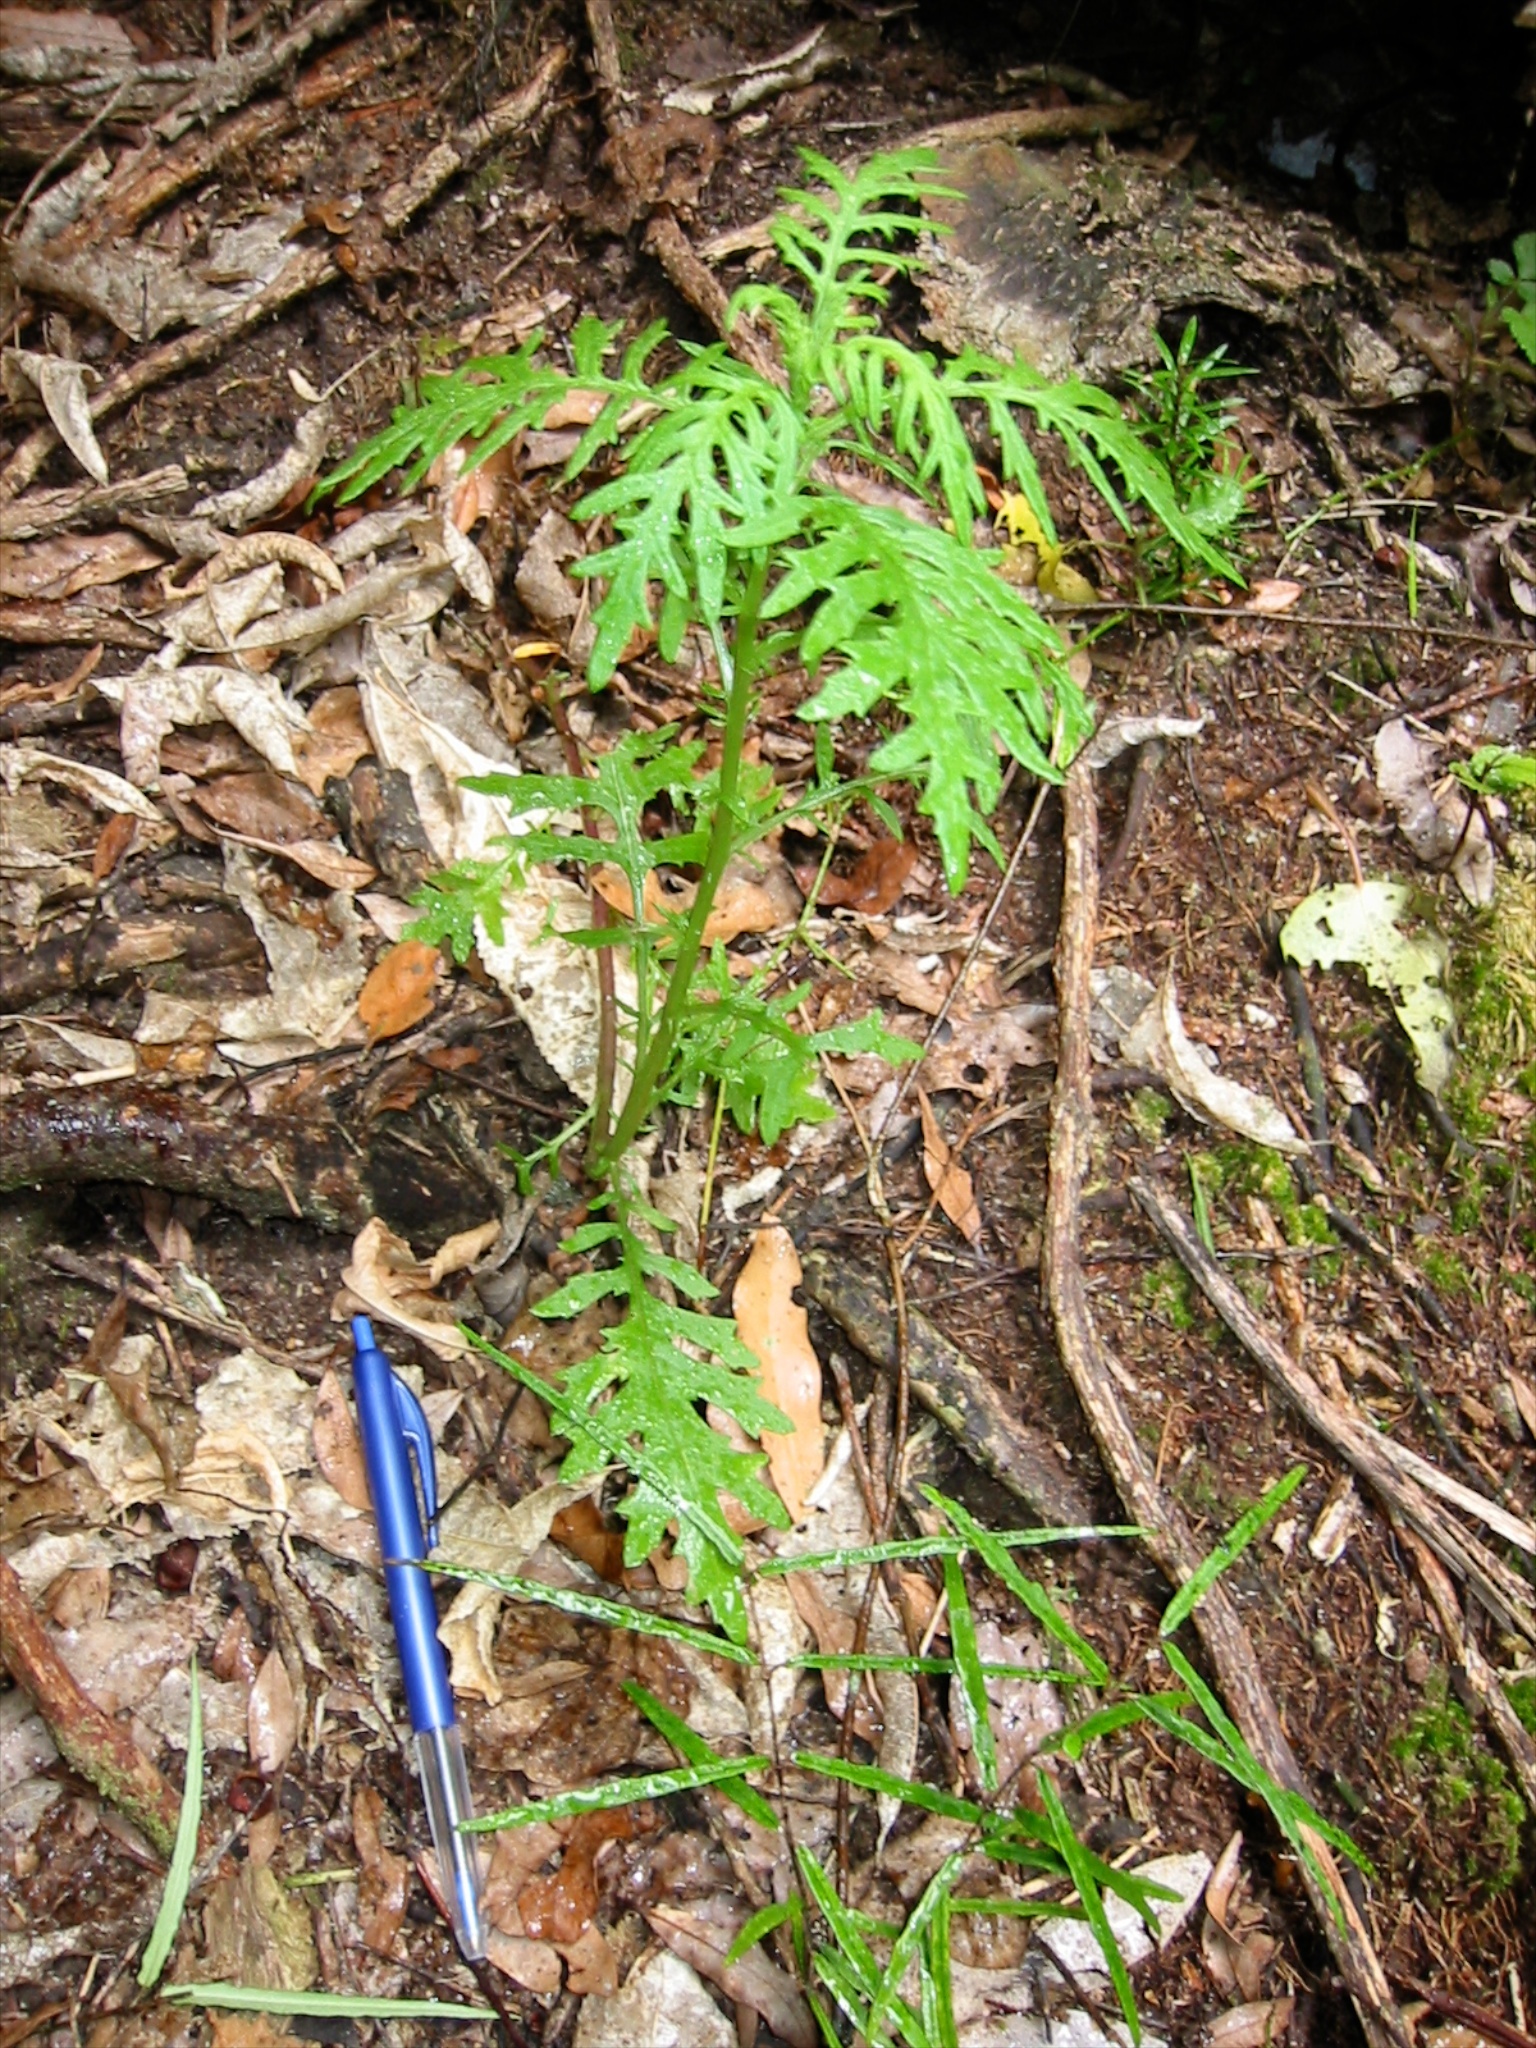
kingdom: Plantae
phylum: Tracheophyta
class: Magnoliopsida
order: Asterales
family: Asteraceae
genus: Senecio
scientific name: Senecio bipinnatisectus
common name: Australian fireweed
